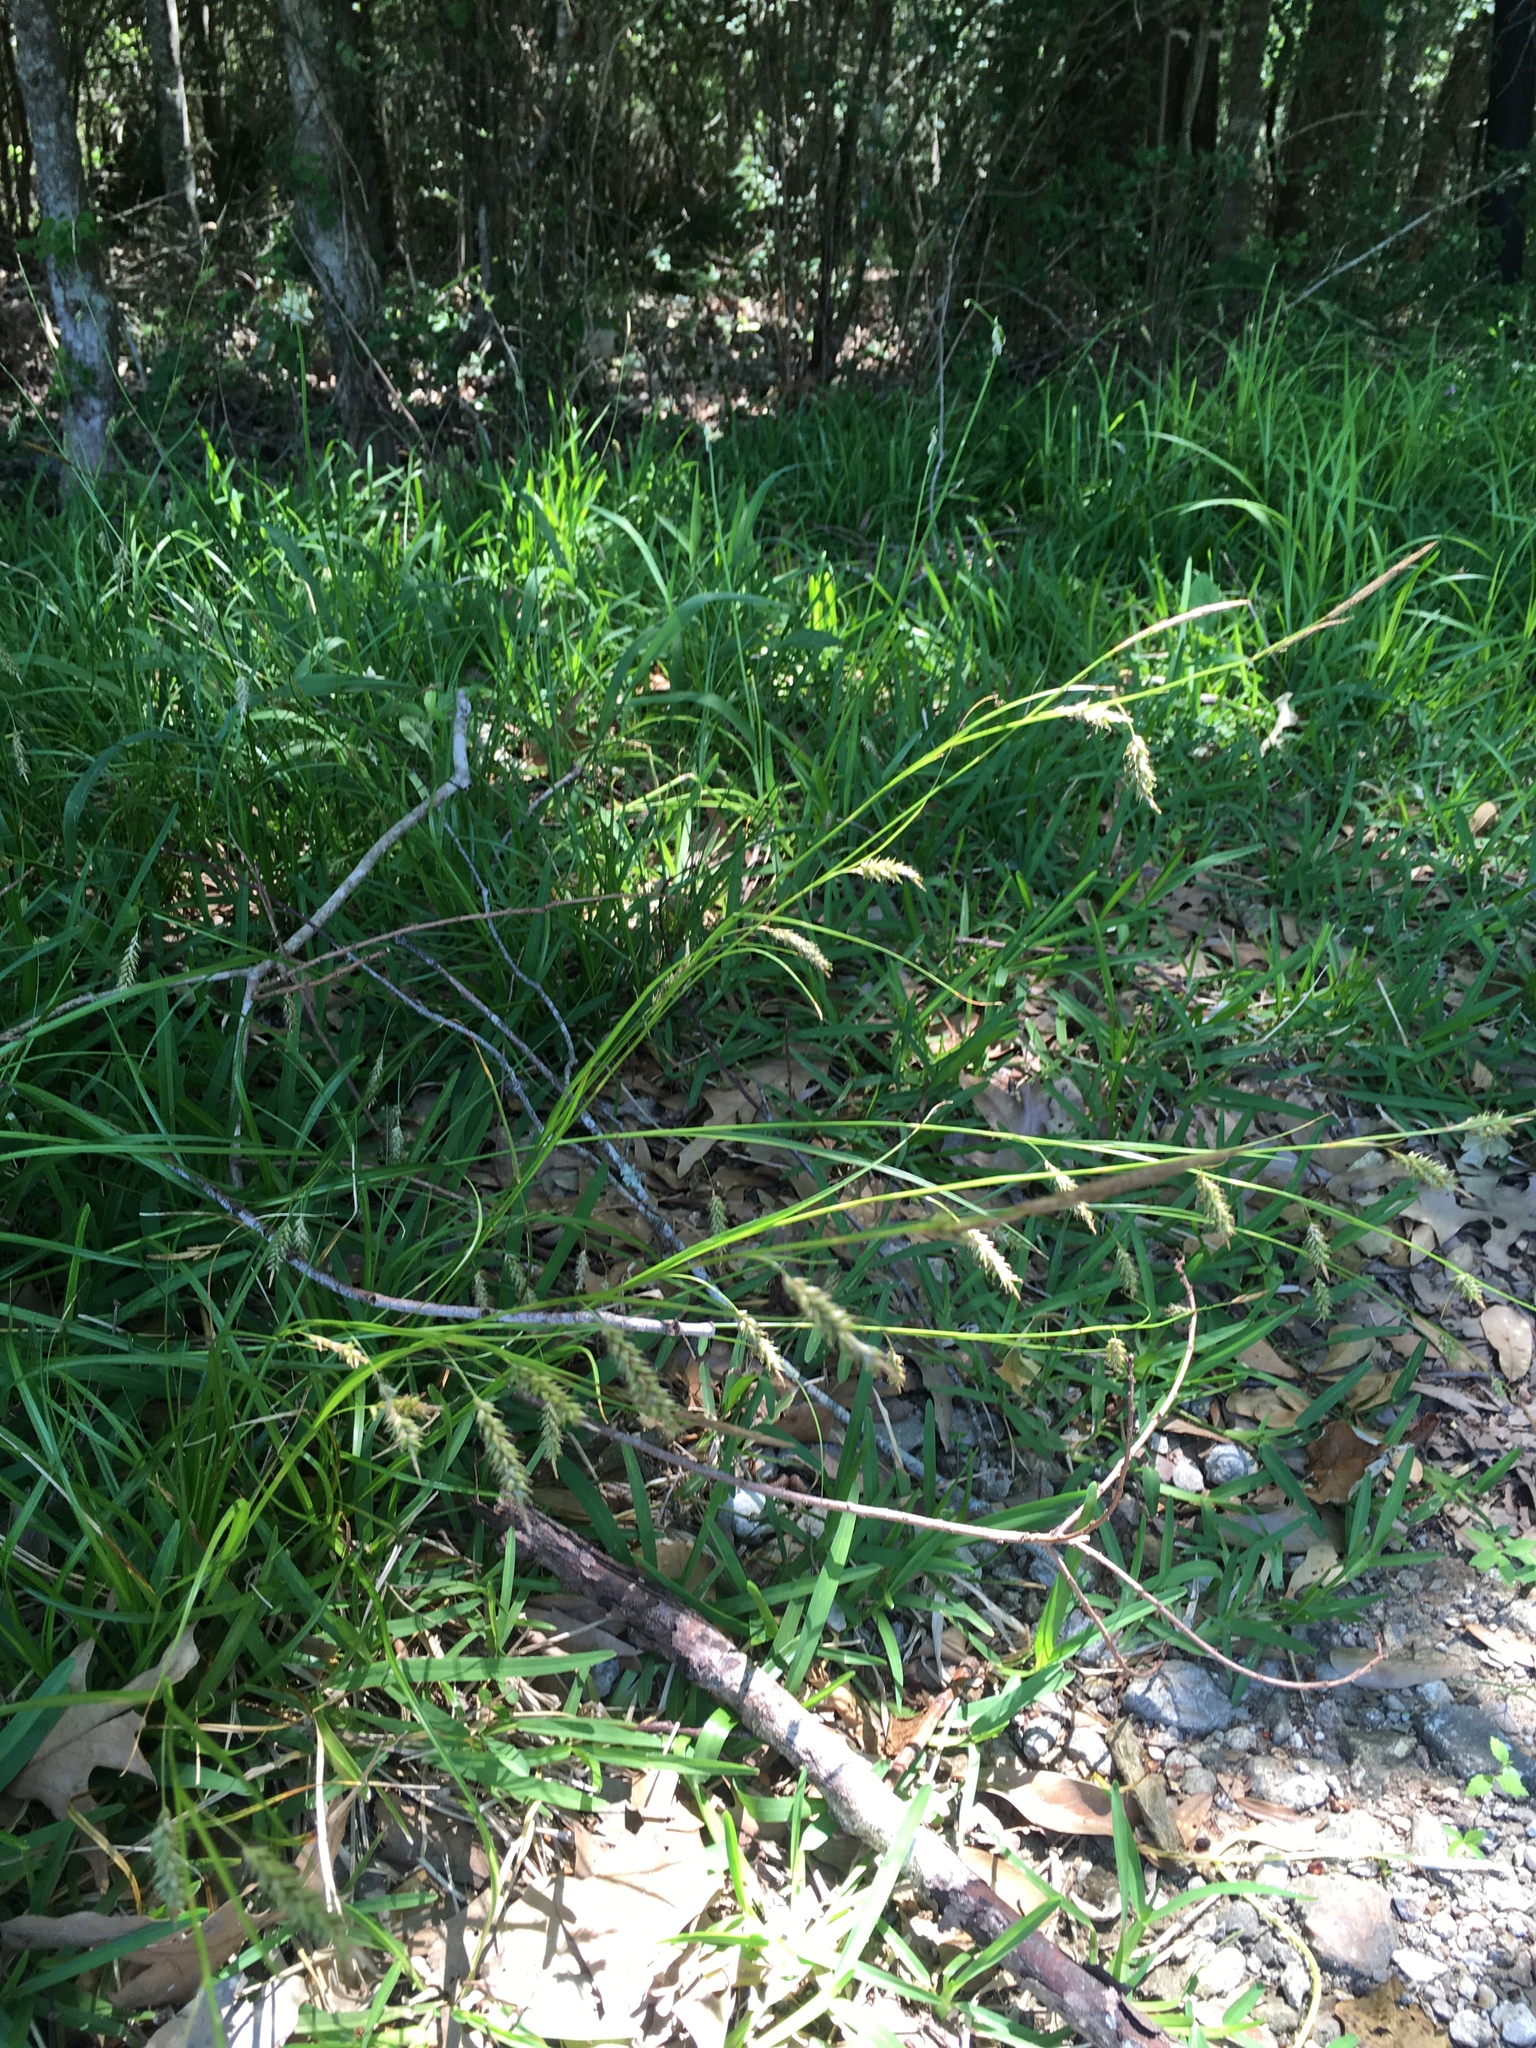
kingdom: Plantae
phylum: Tracheophyta
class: Liliopsida
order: Poales
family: Cyperaceae
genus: Carex
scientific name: Carex cherokeensis
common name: Cherokee sedge
